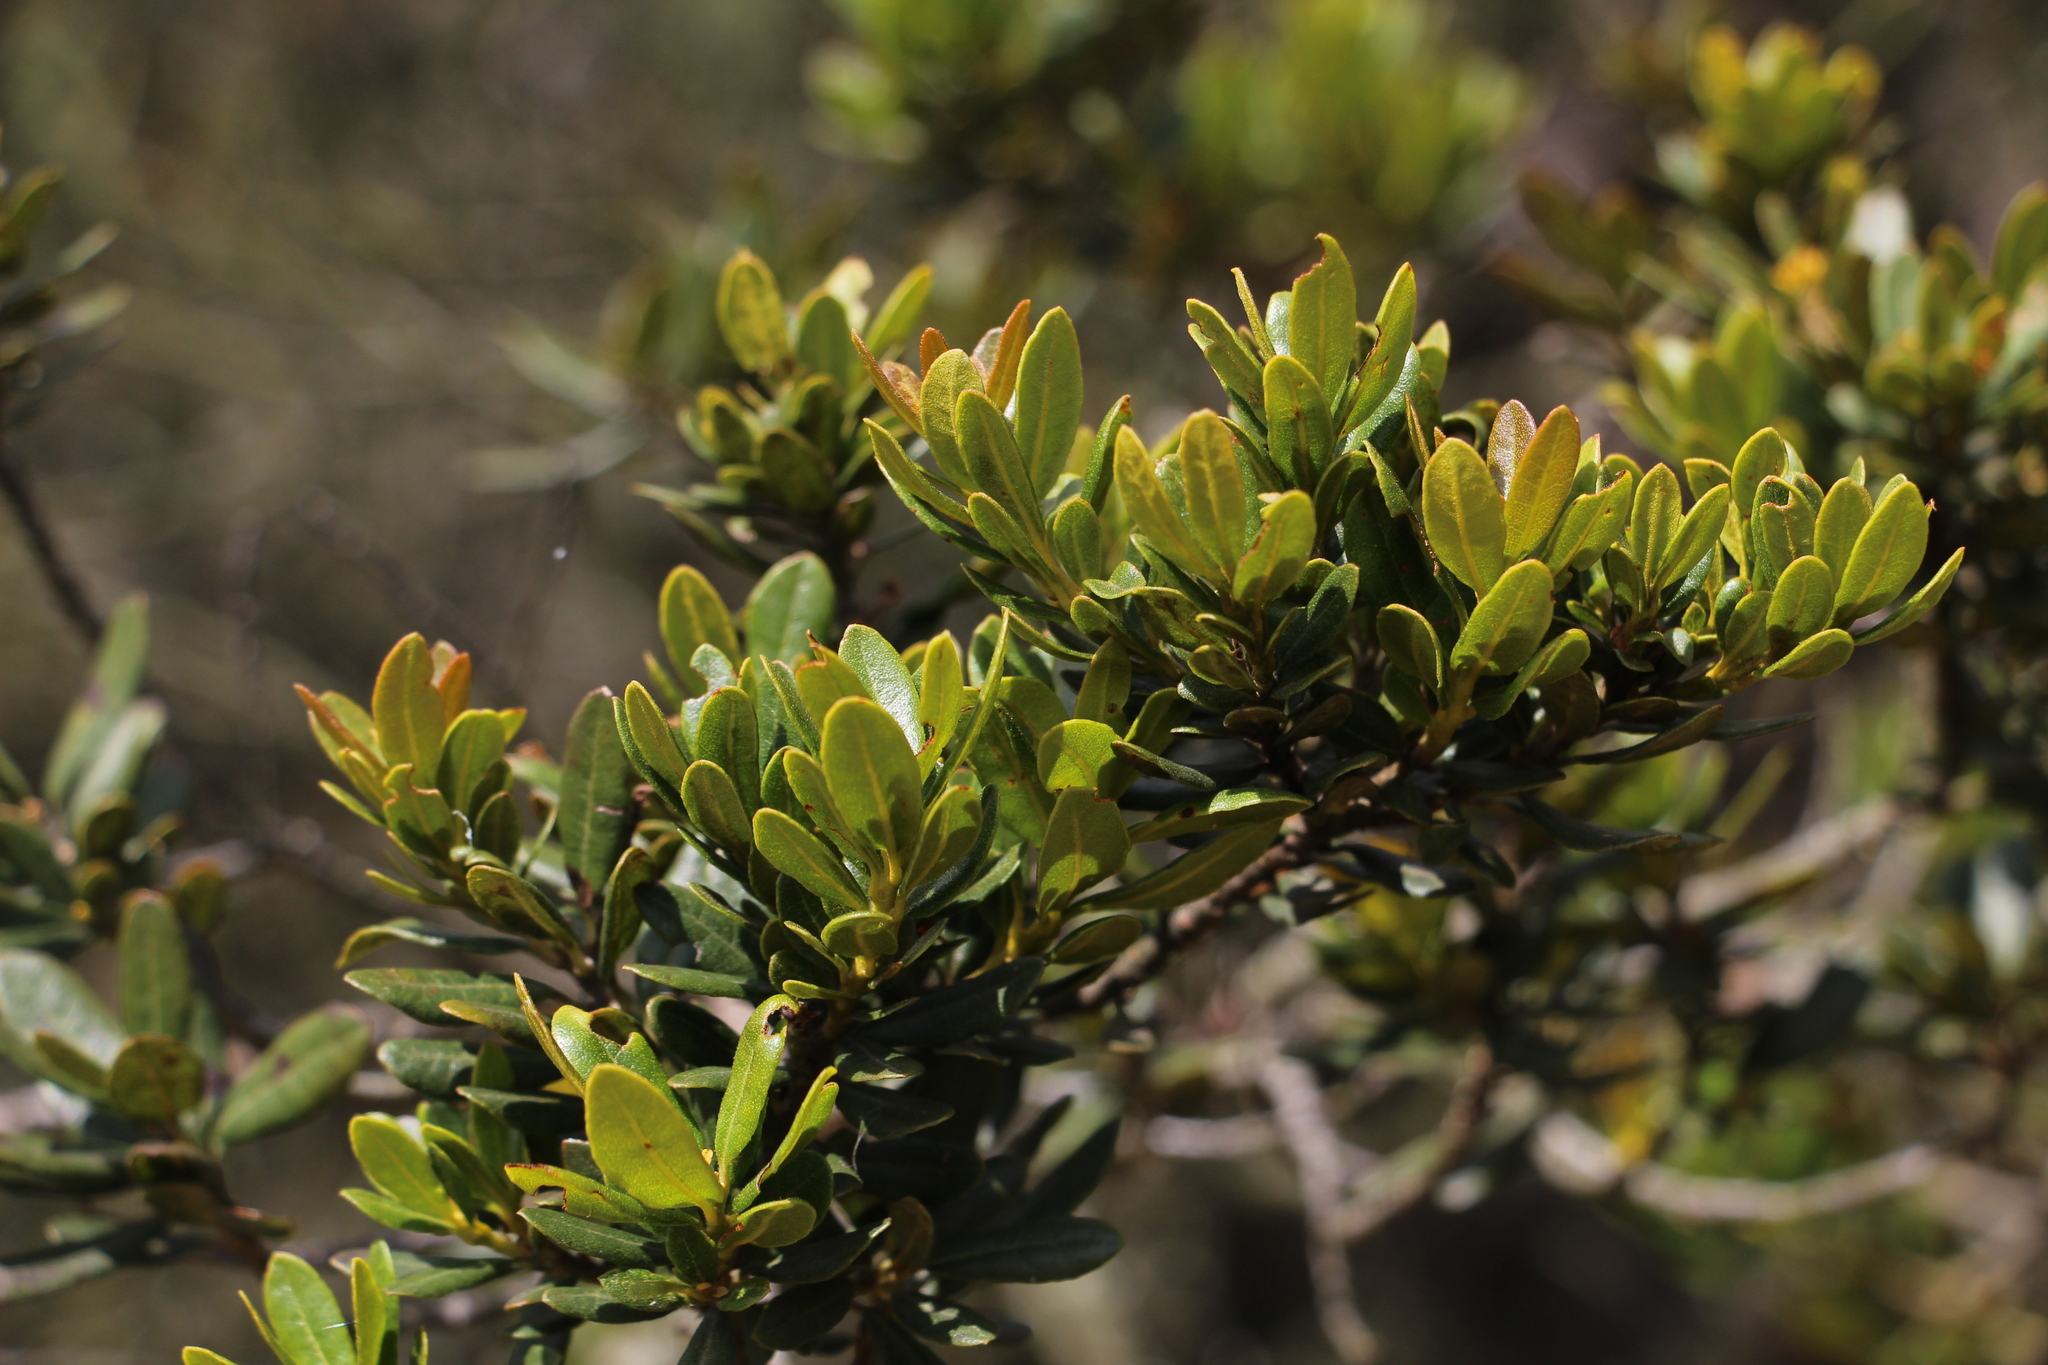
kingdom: Plantae
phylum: Tracheophyta
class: Magnoliopsida
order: Fagales
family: Myricaceae
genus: Morella
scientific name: Morella parvifolia
